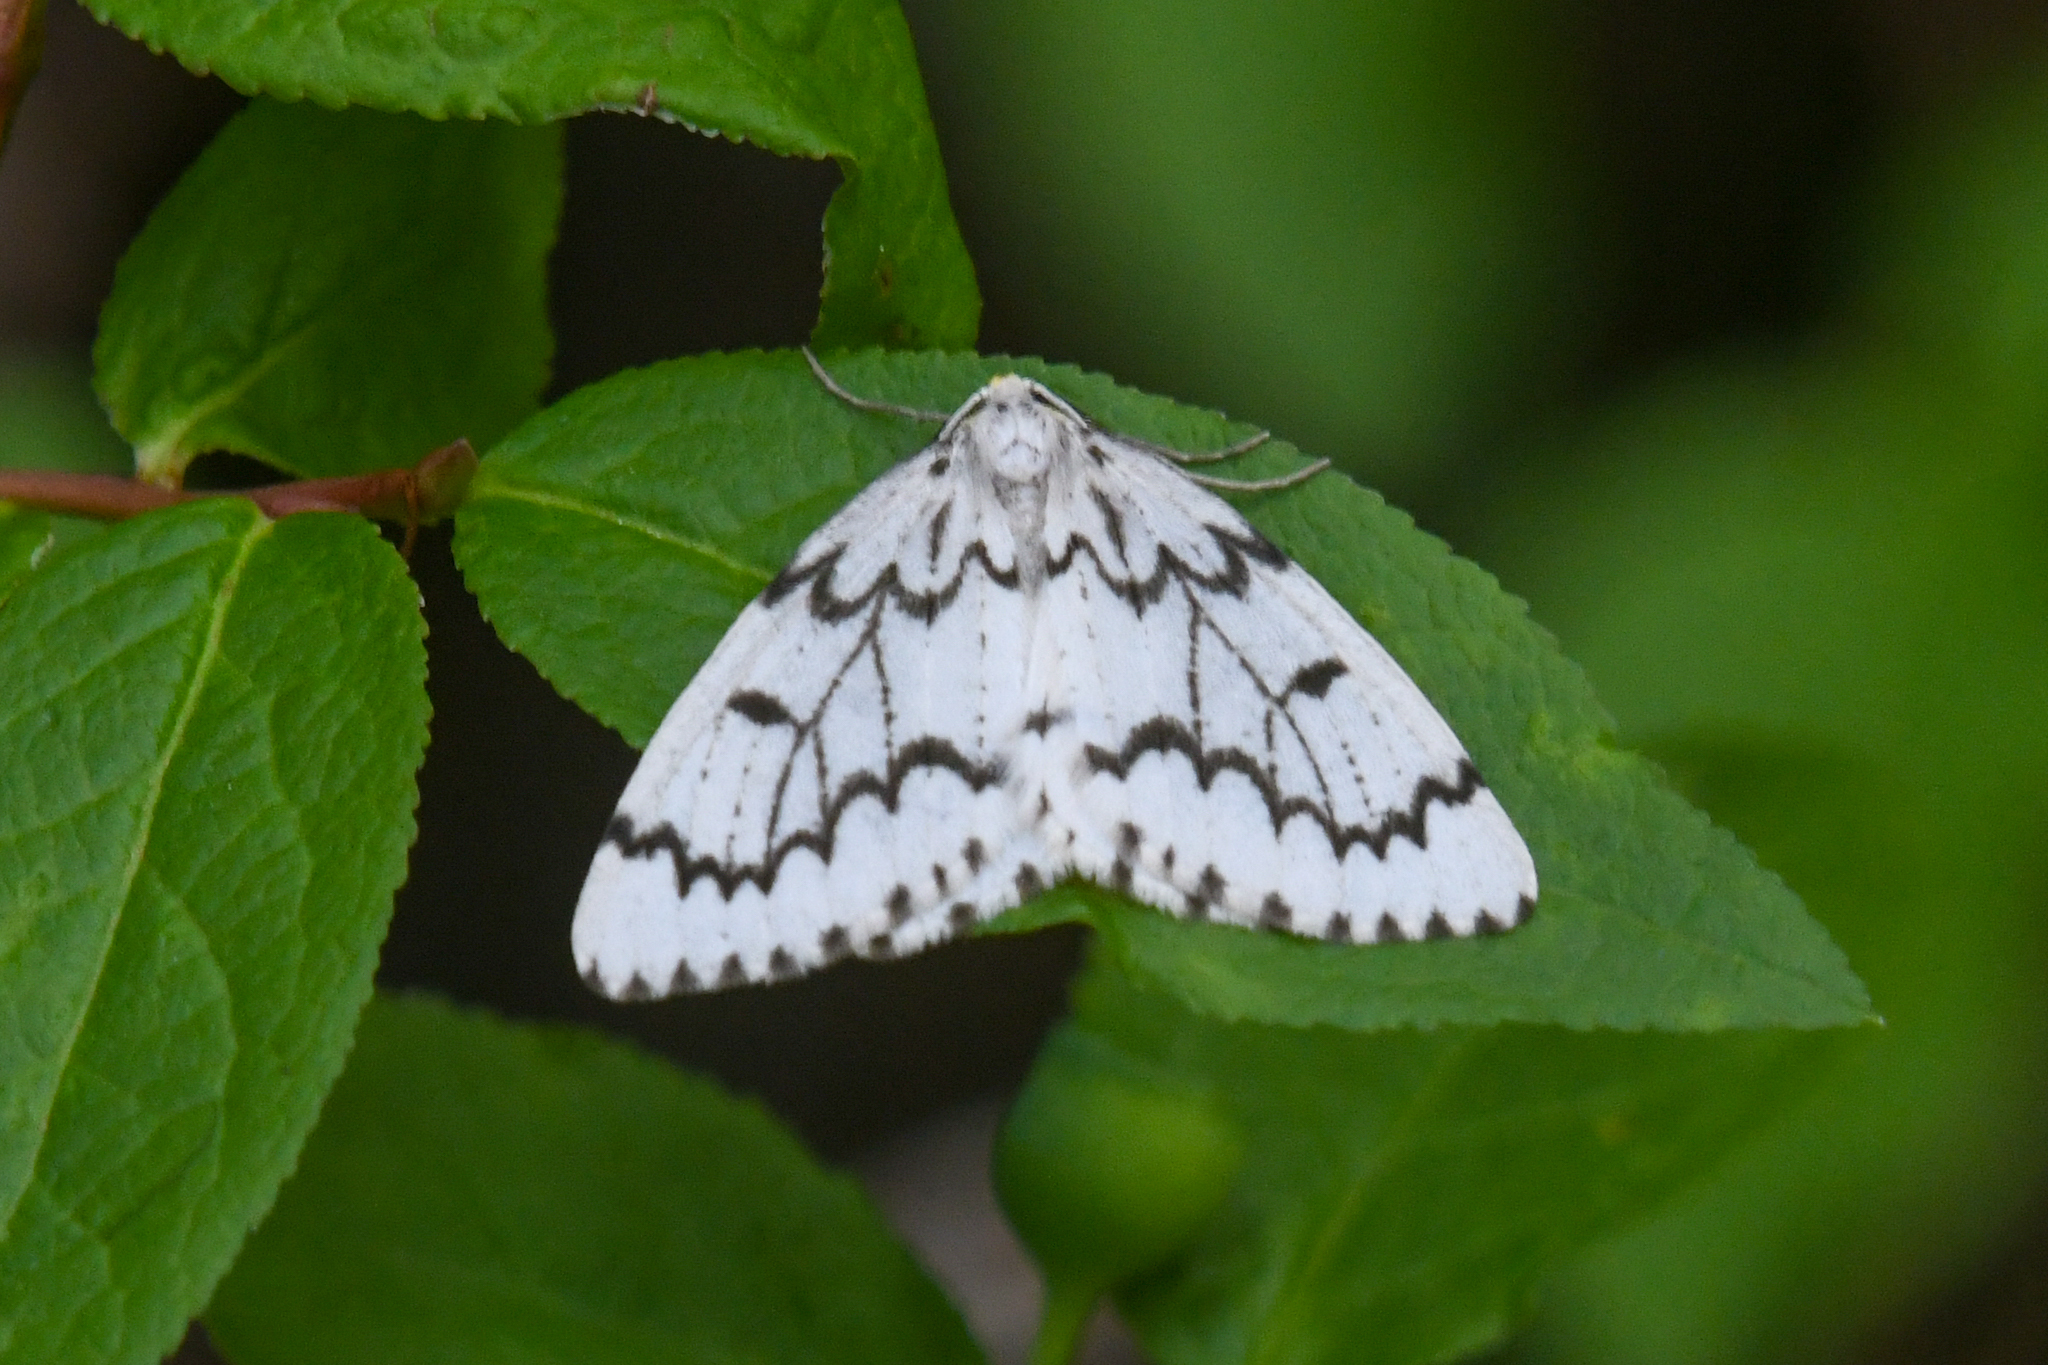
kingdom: Animalia
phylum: Arthropoda
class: Insecta
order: Lepidoptera
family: Geometridae
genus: Nepytia
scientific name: Nepytia phantasmaria
